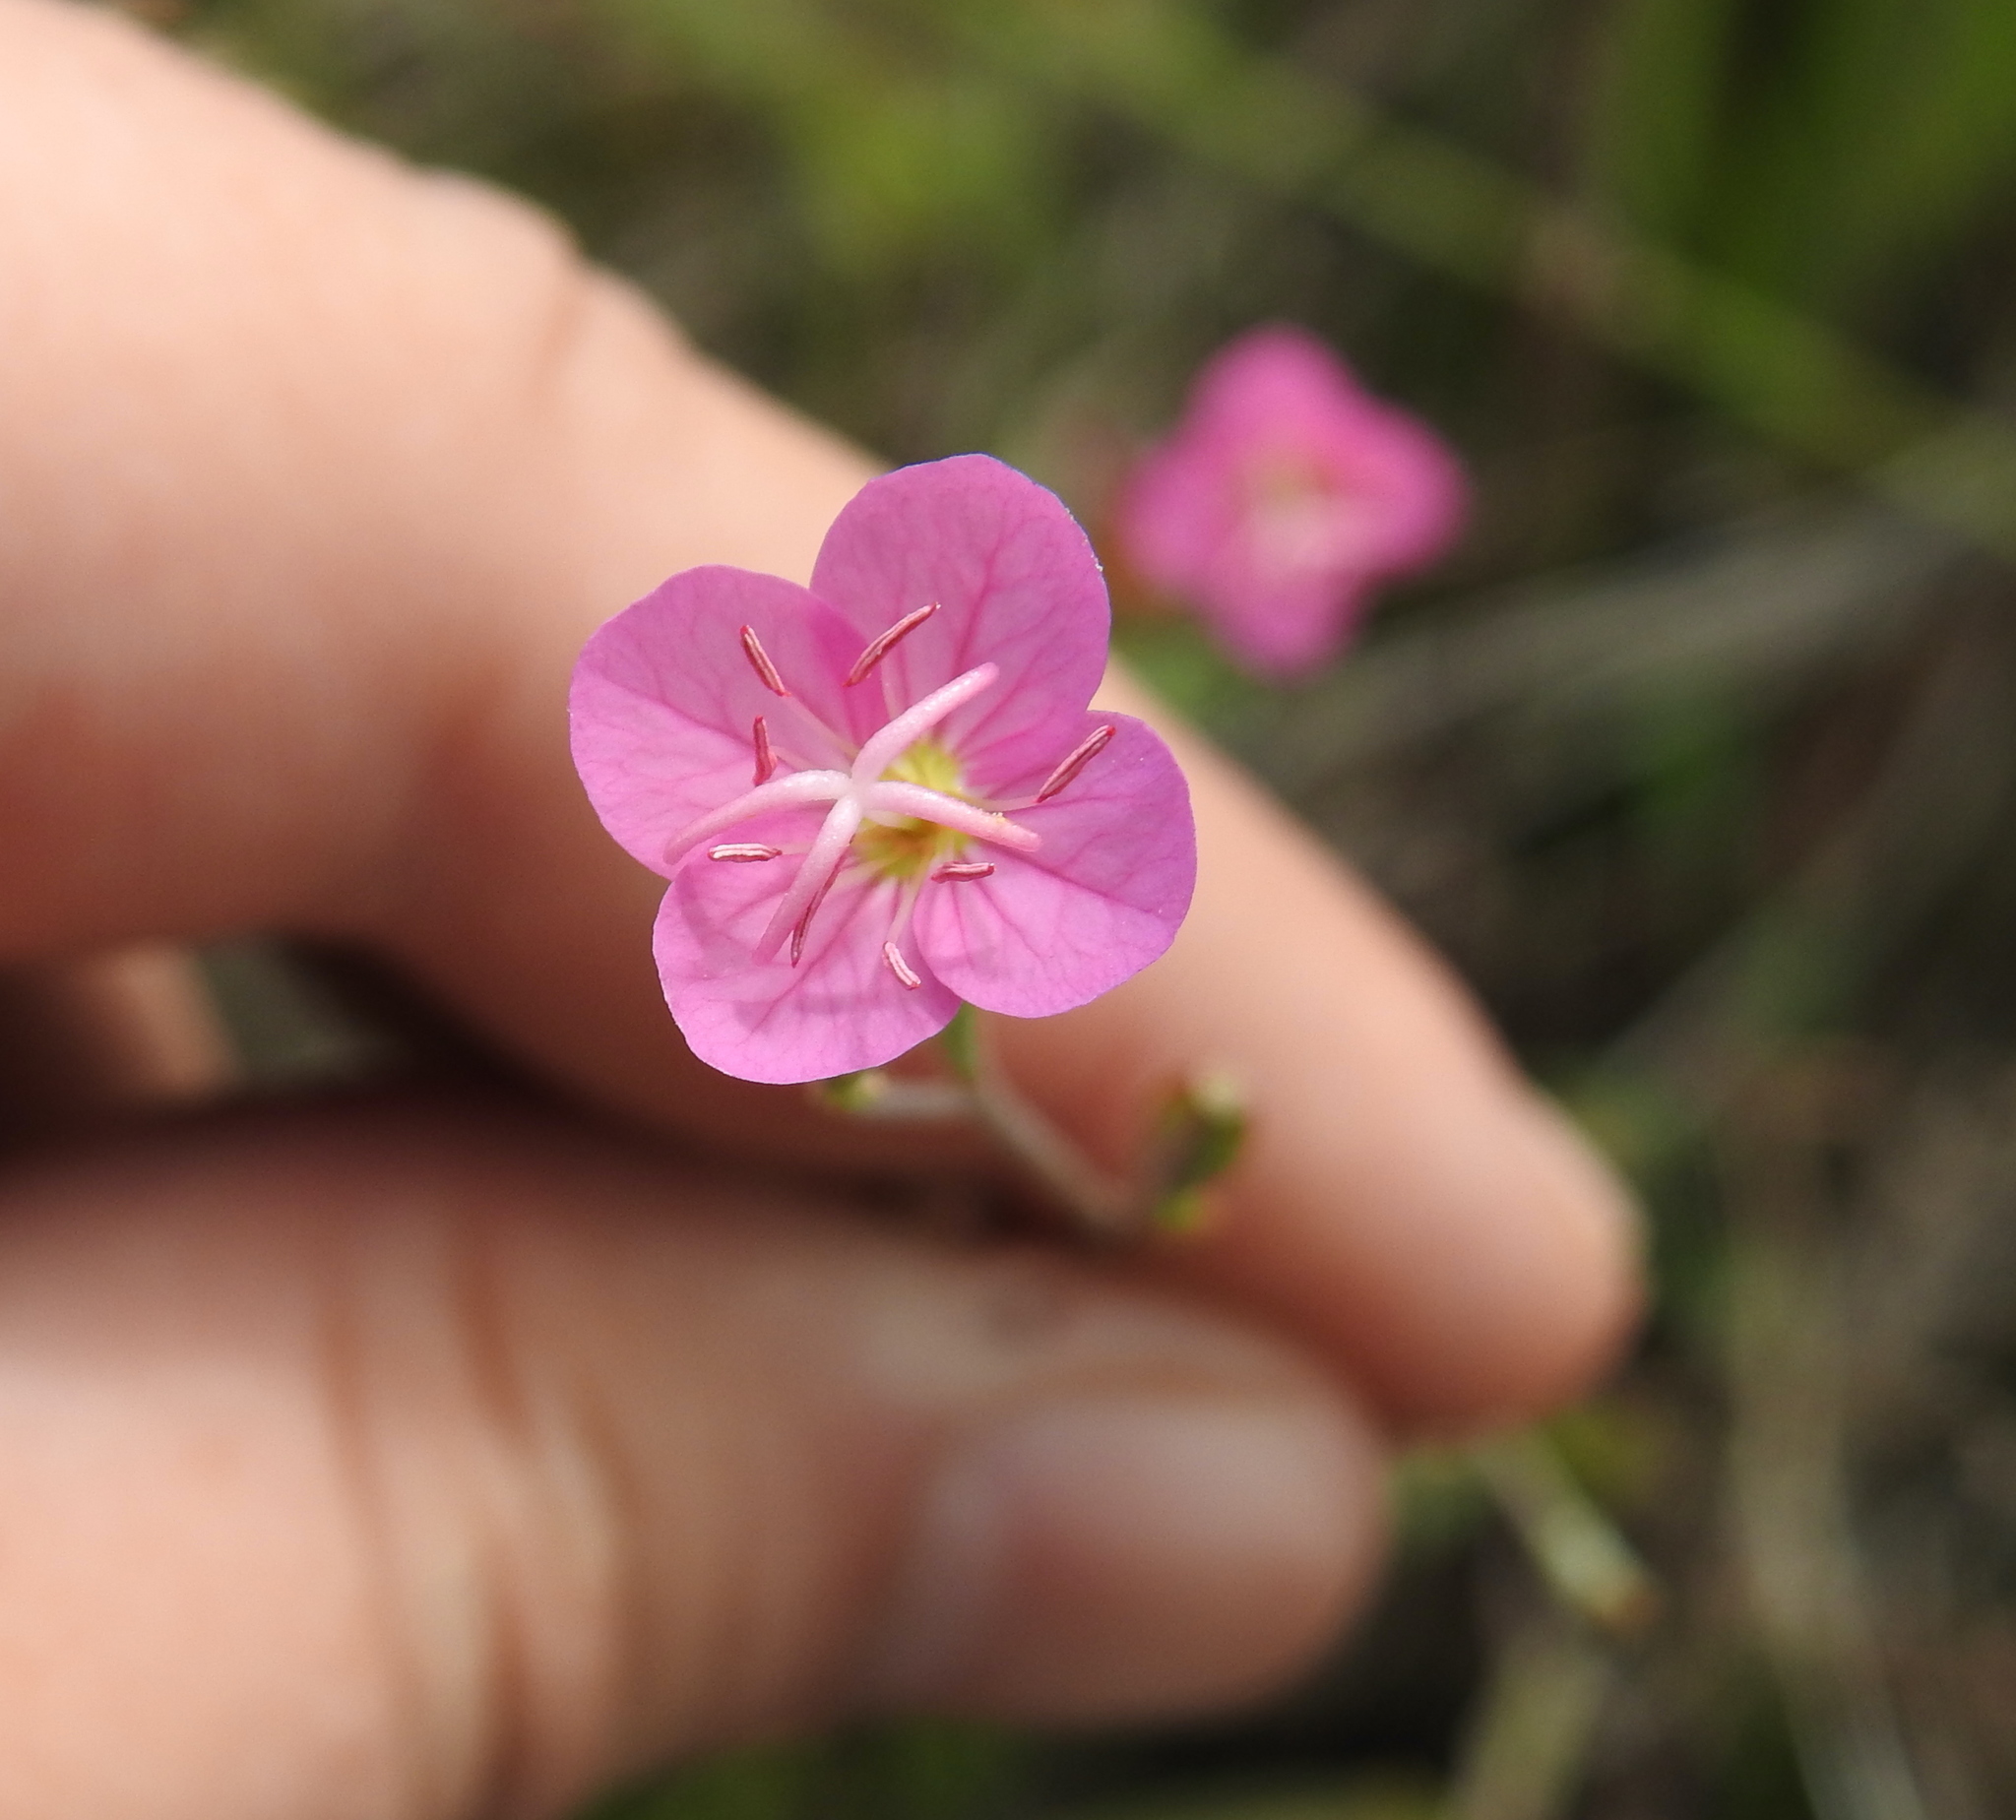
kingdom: Plantae
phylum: Tracheophyta
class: Magnoliopsida
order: Myrtales
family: Onagraceae
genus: Oenothera
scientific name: Oenothera rosea
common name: Rosy evening-primrose
